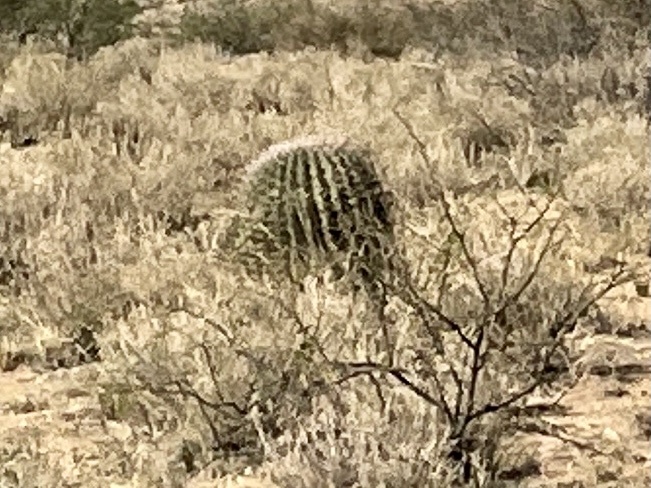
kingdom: Plantae
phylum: Tracheophyta
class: Magnoliopsida
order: Caryophyllales
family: Cactaceae
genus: Ferocactus
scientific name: Ferocactus wislizeni
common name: Candy barrel cactus
